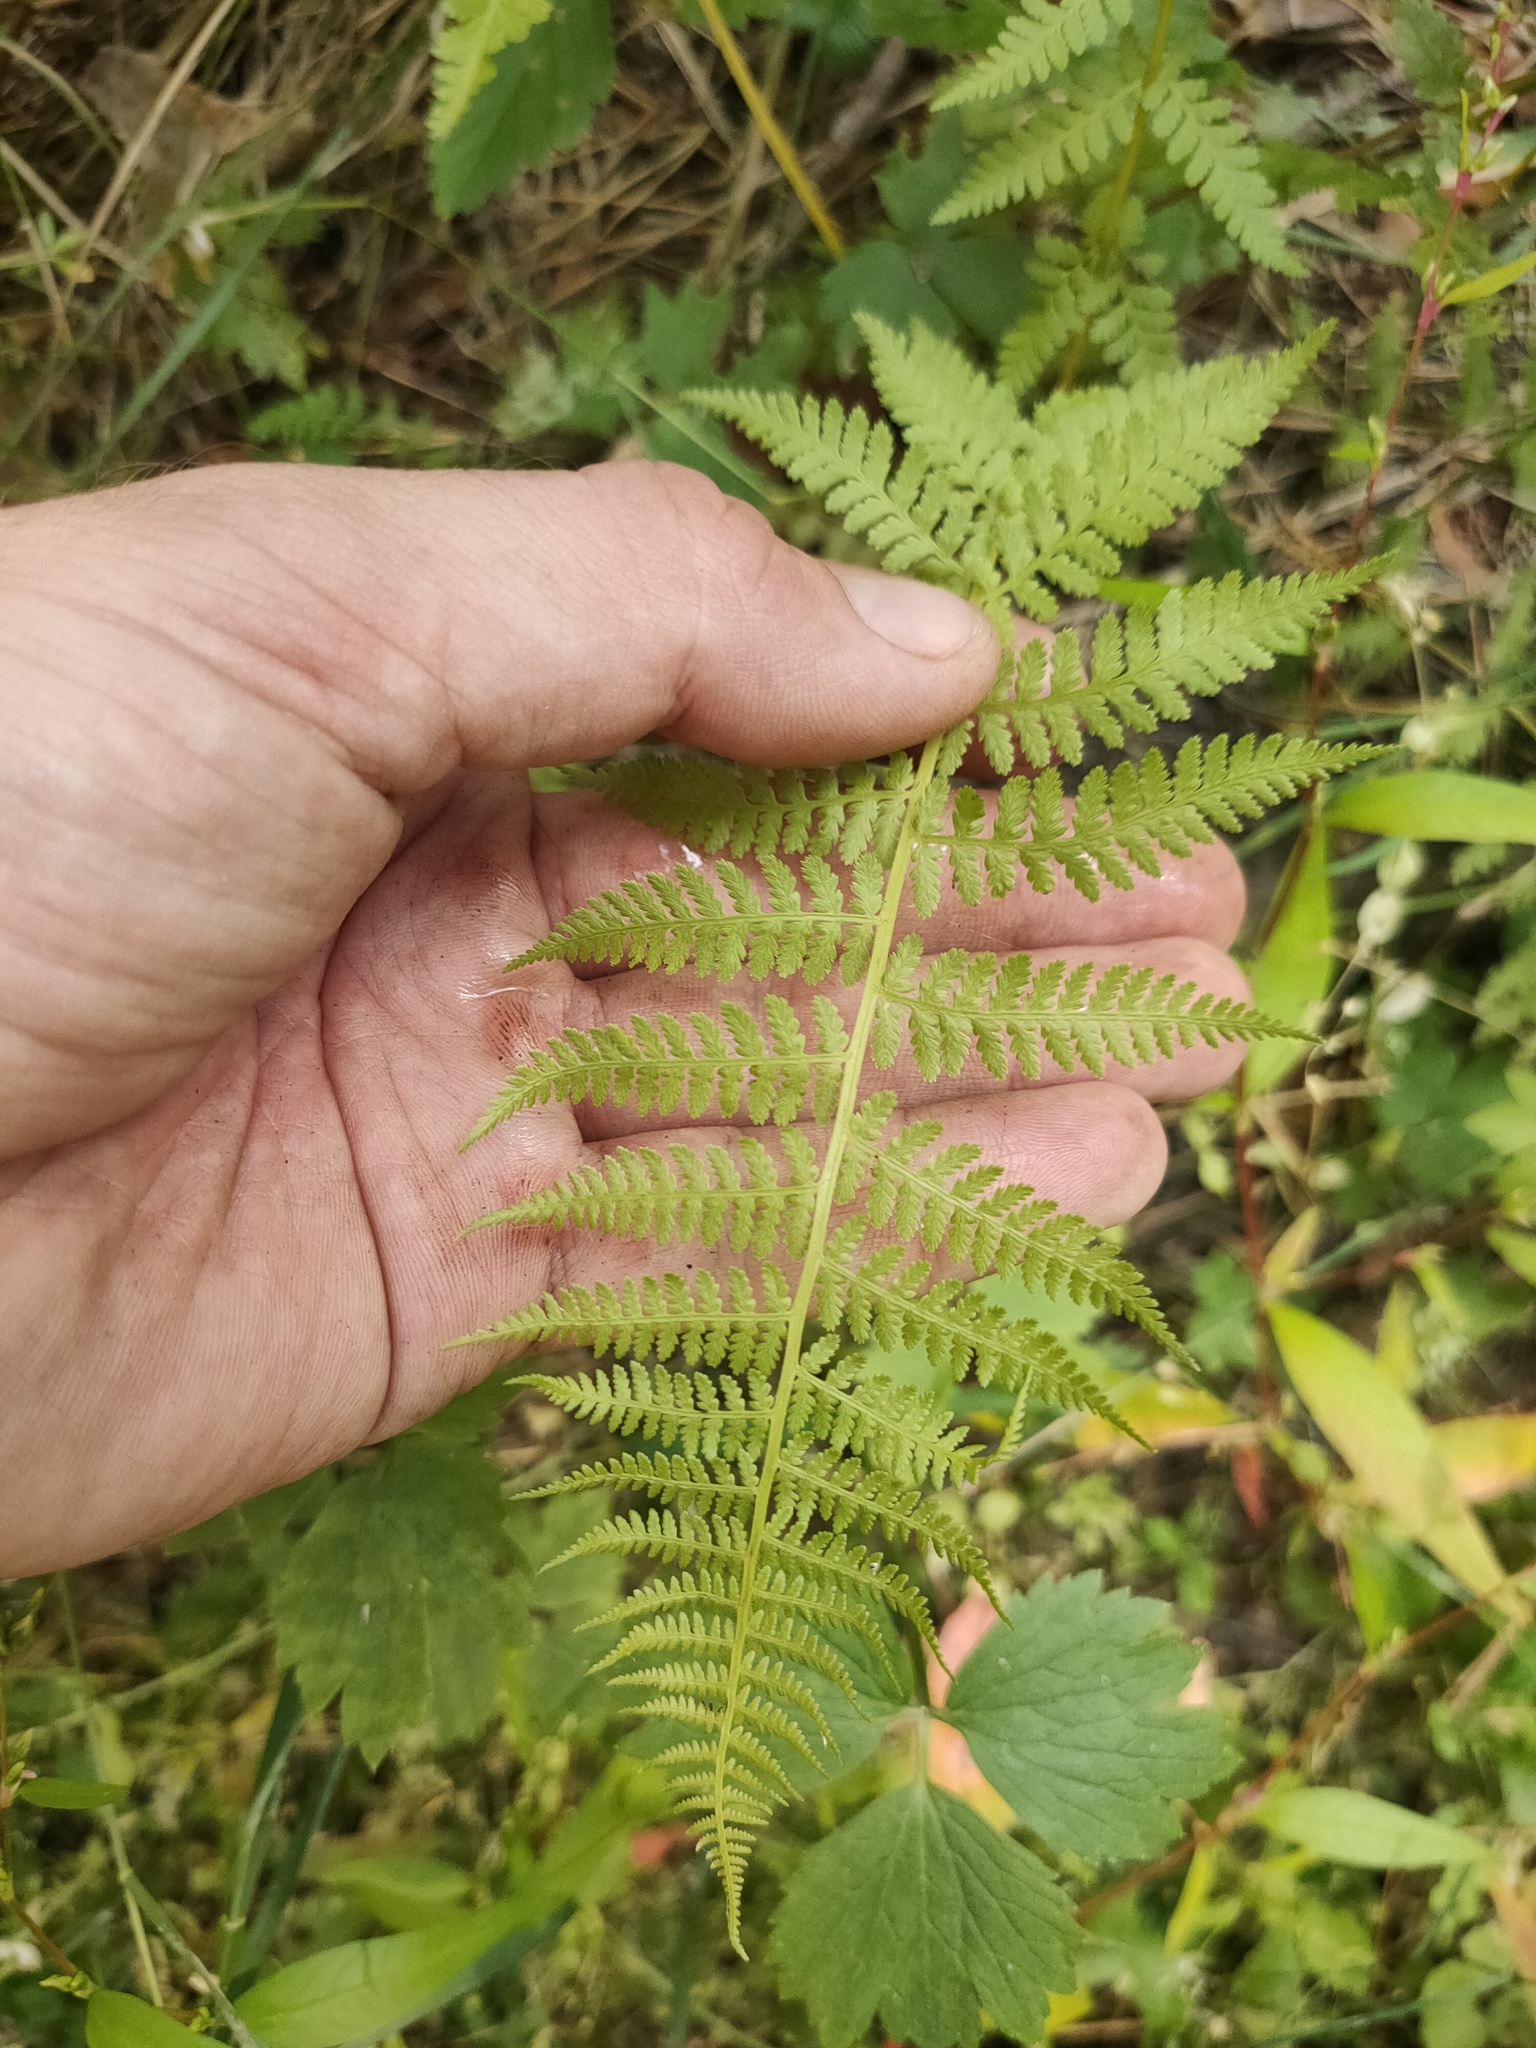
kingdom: Plantae
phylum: Tracheophyta
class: Polypodiopsida
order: Polypodiales
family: Athyriaceae
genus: Athyrium
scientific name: Athyrium filix-femina
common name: Lady fern
